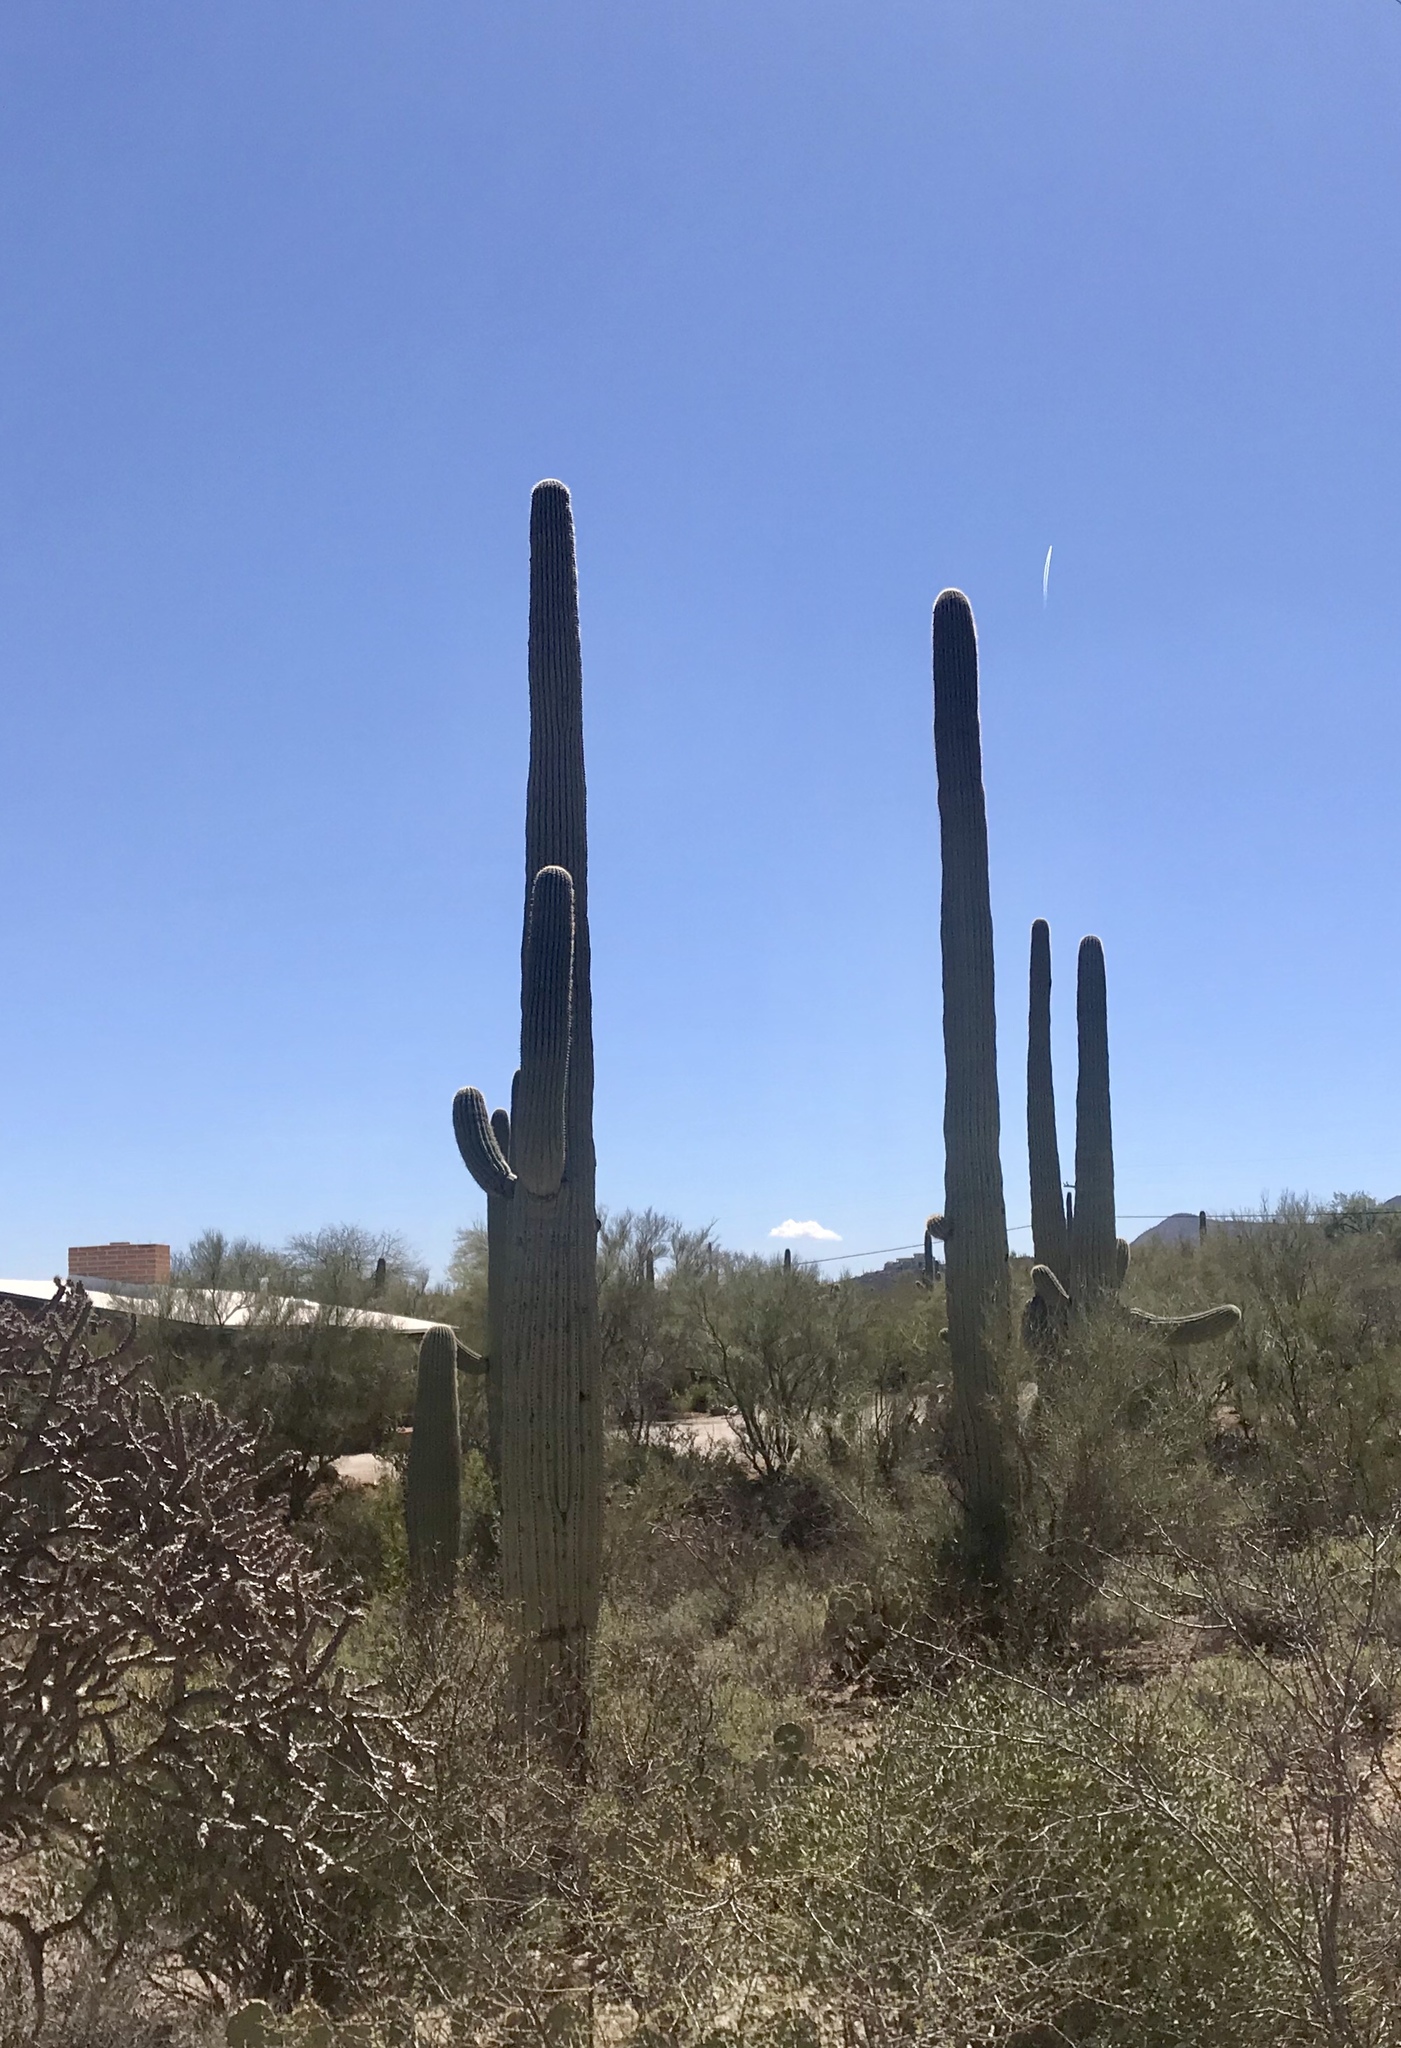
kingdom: Plantae
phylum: Tracheophyta
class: Magnoliopsida
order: Caryophyllales
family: Cactaceae
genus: Carnegiea
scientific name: Carnegiea gigantea
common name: Saguaro
